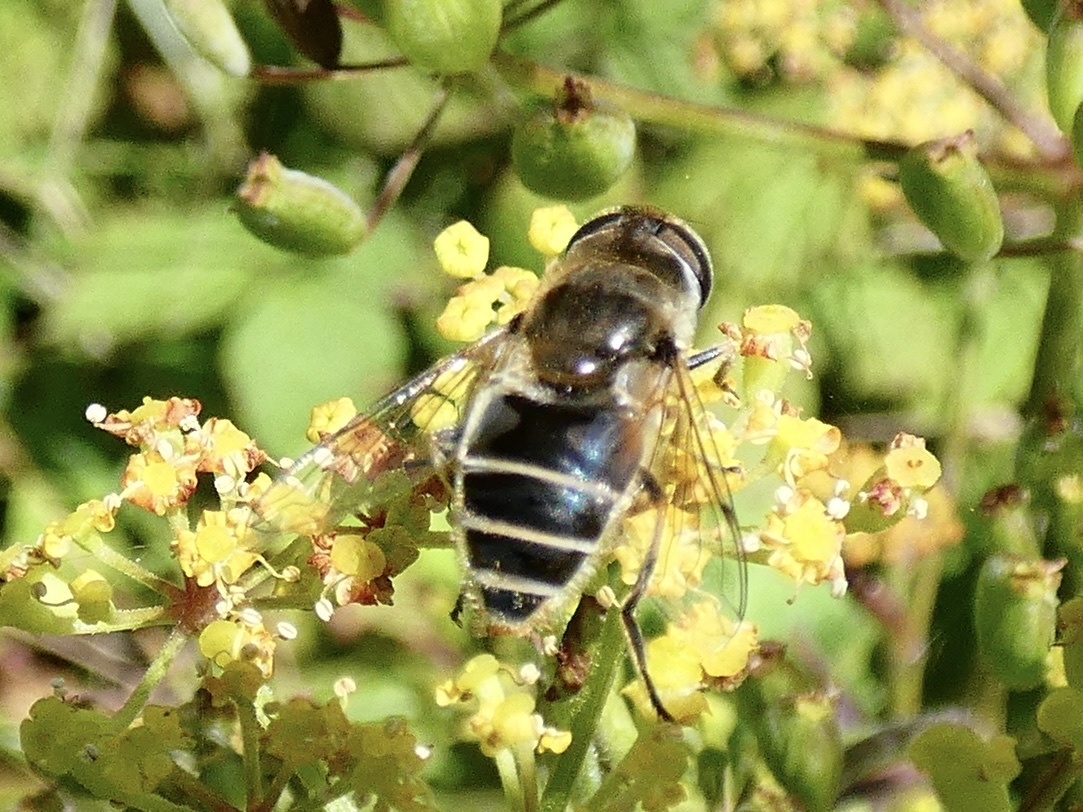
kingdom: Animalia
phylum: Arthropoda
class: Insecta
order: Diptera
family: Syrphidae
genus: Eristalis
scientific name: Eristalis arbustorum
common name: Hover fly
